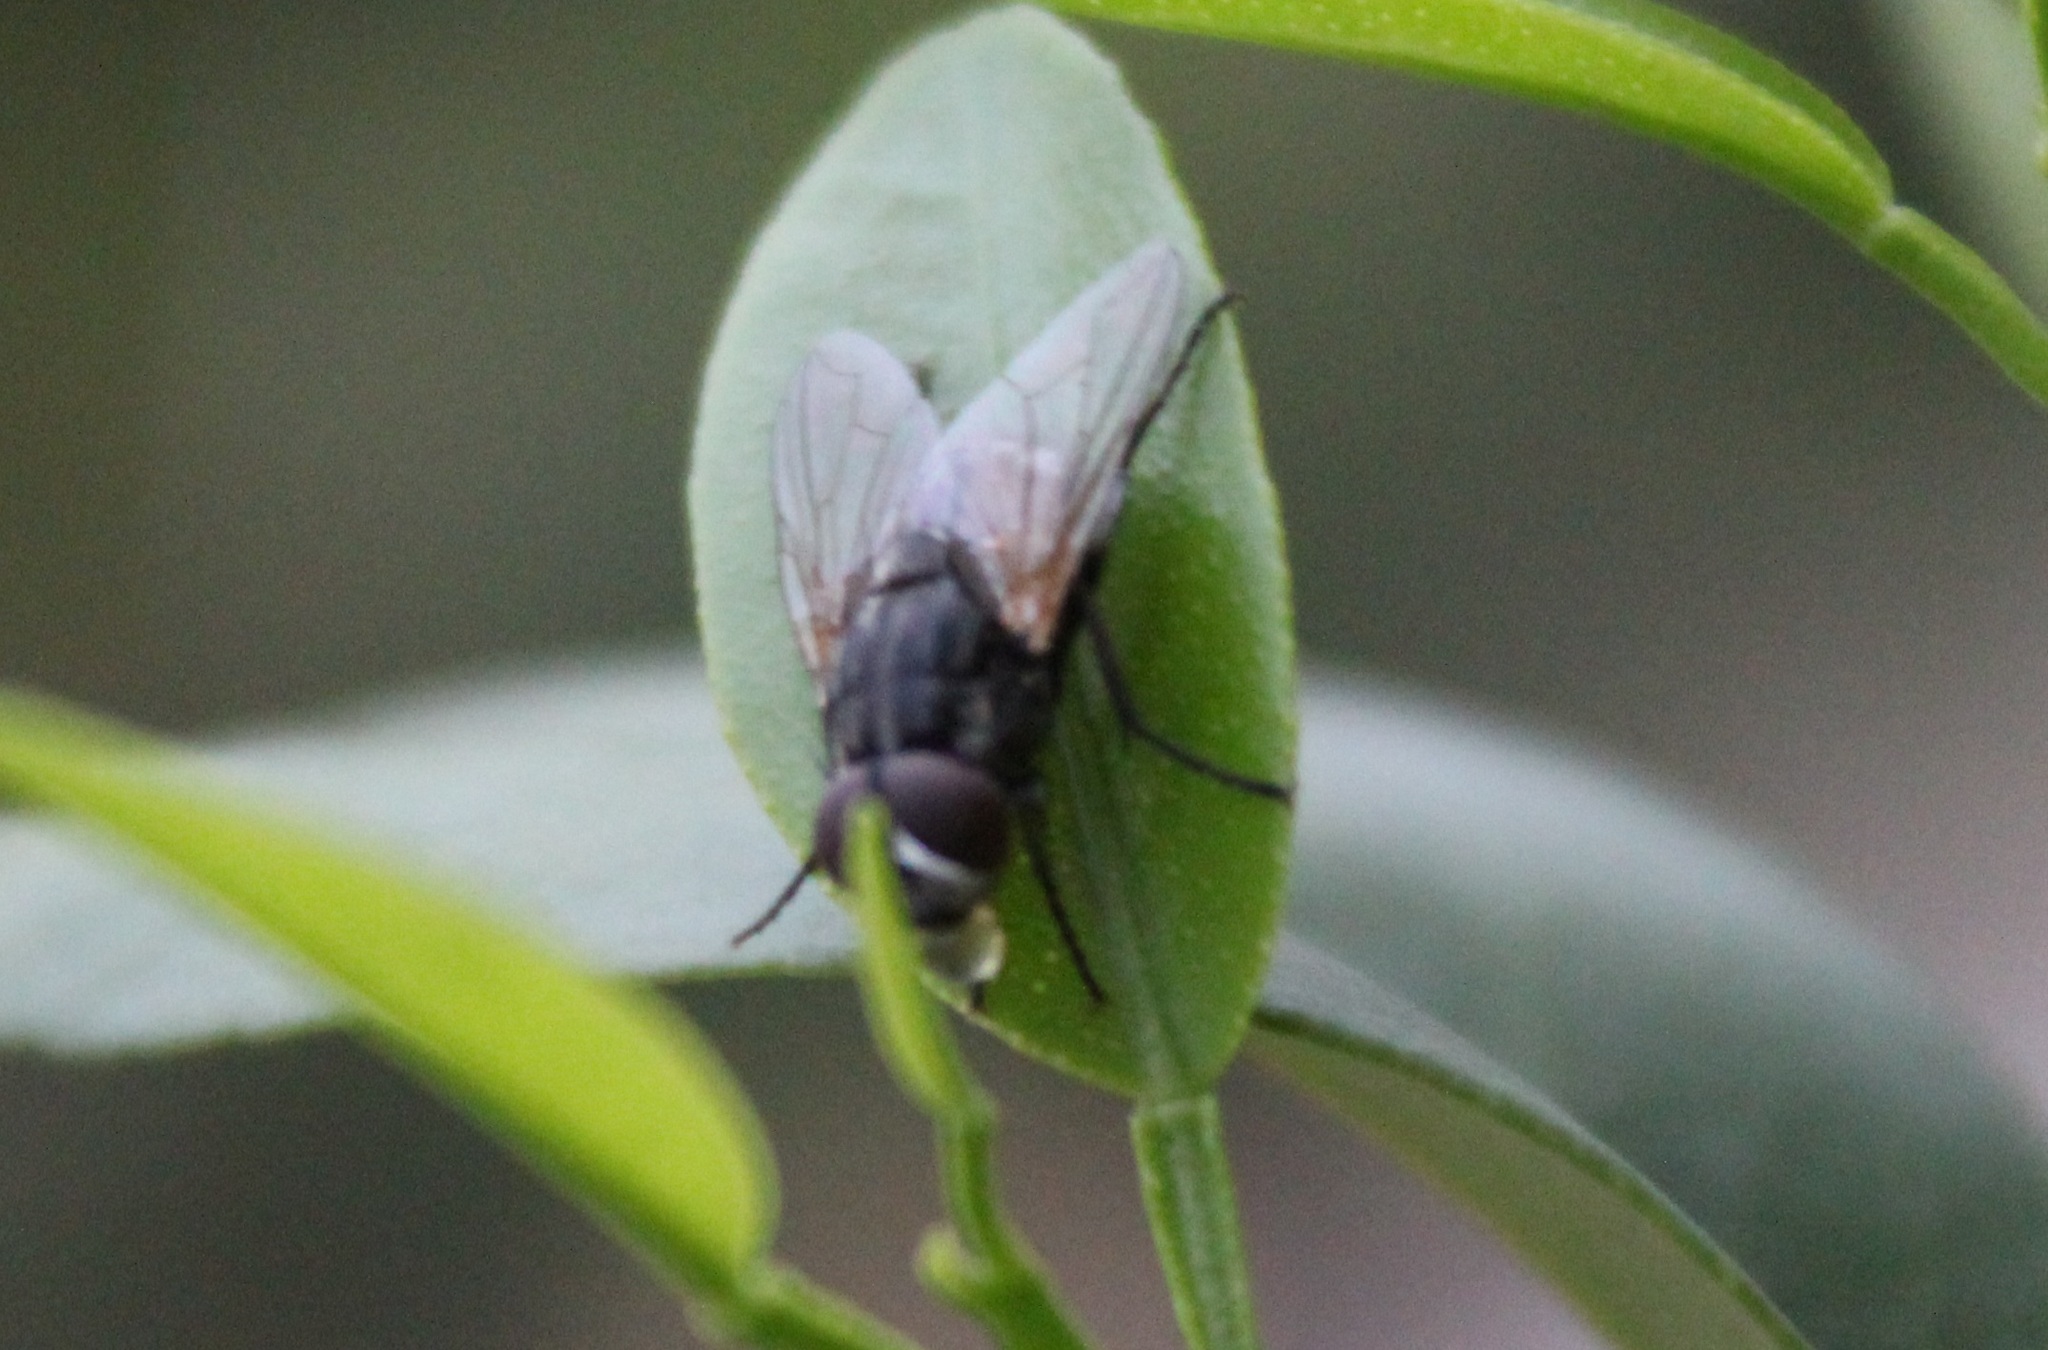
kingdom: Animalia
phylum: Arthropoda
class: Insecta
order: Diptera
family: Muscidae
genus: Musca
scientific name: Musca domestica
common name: House fly
